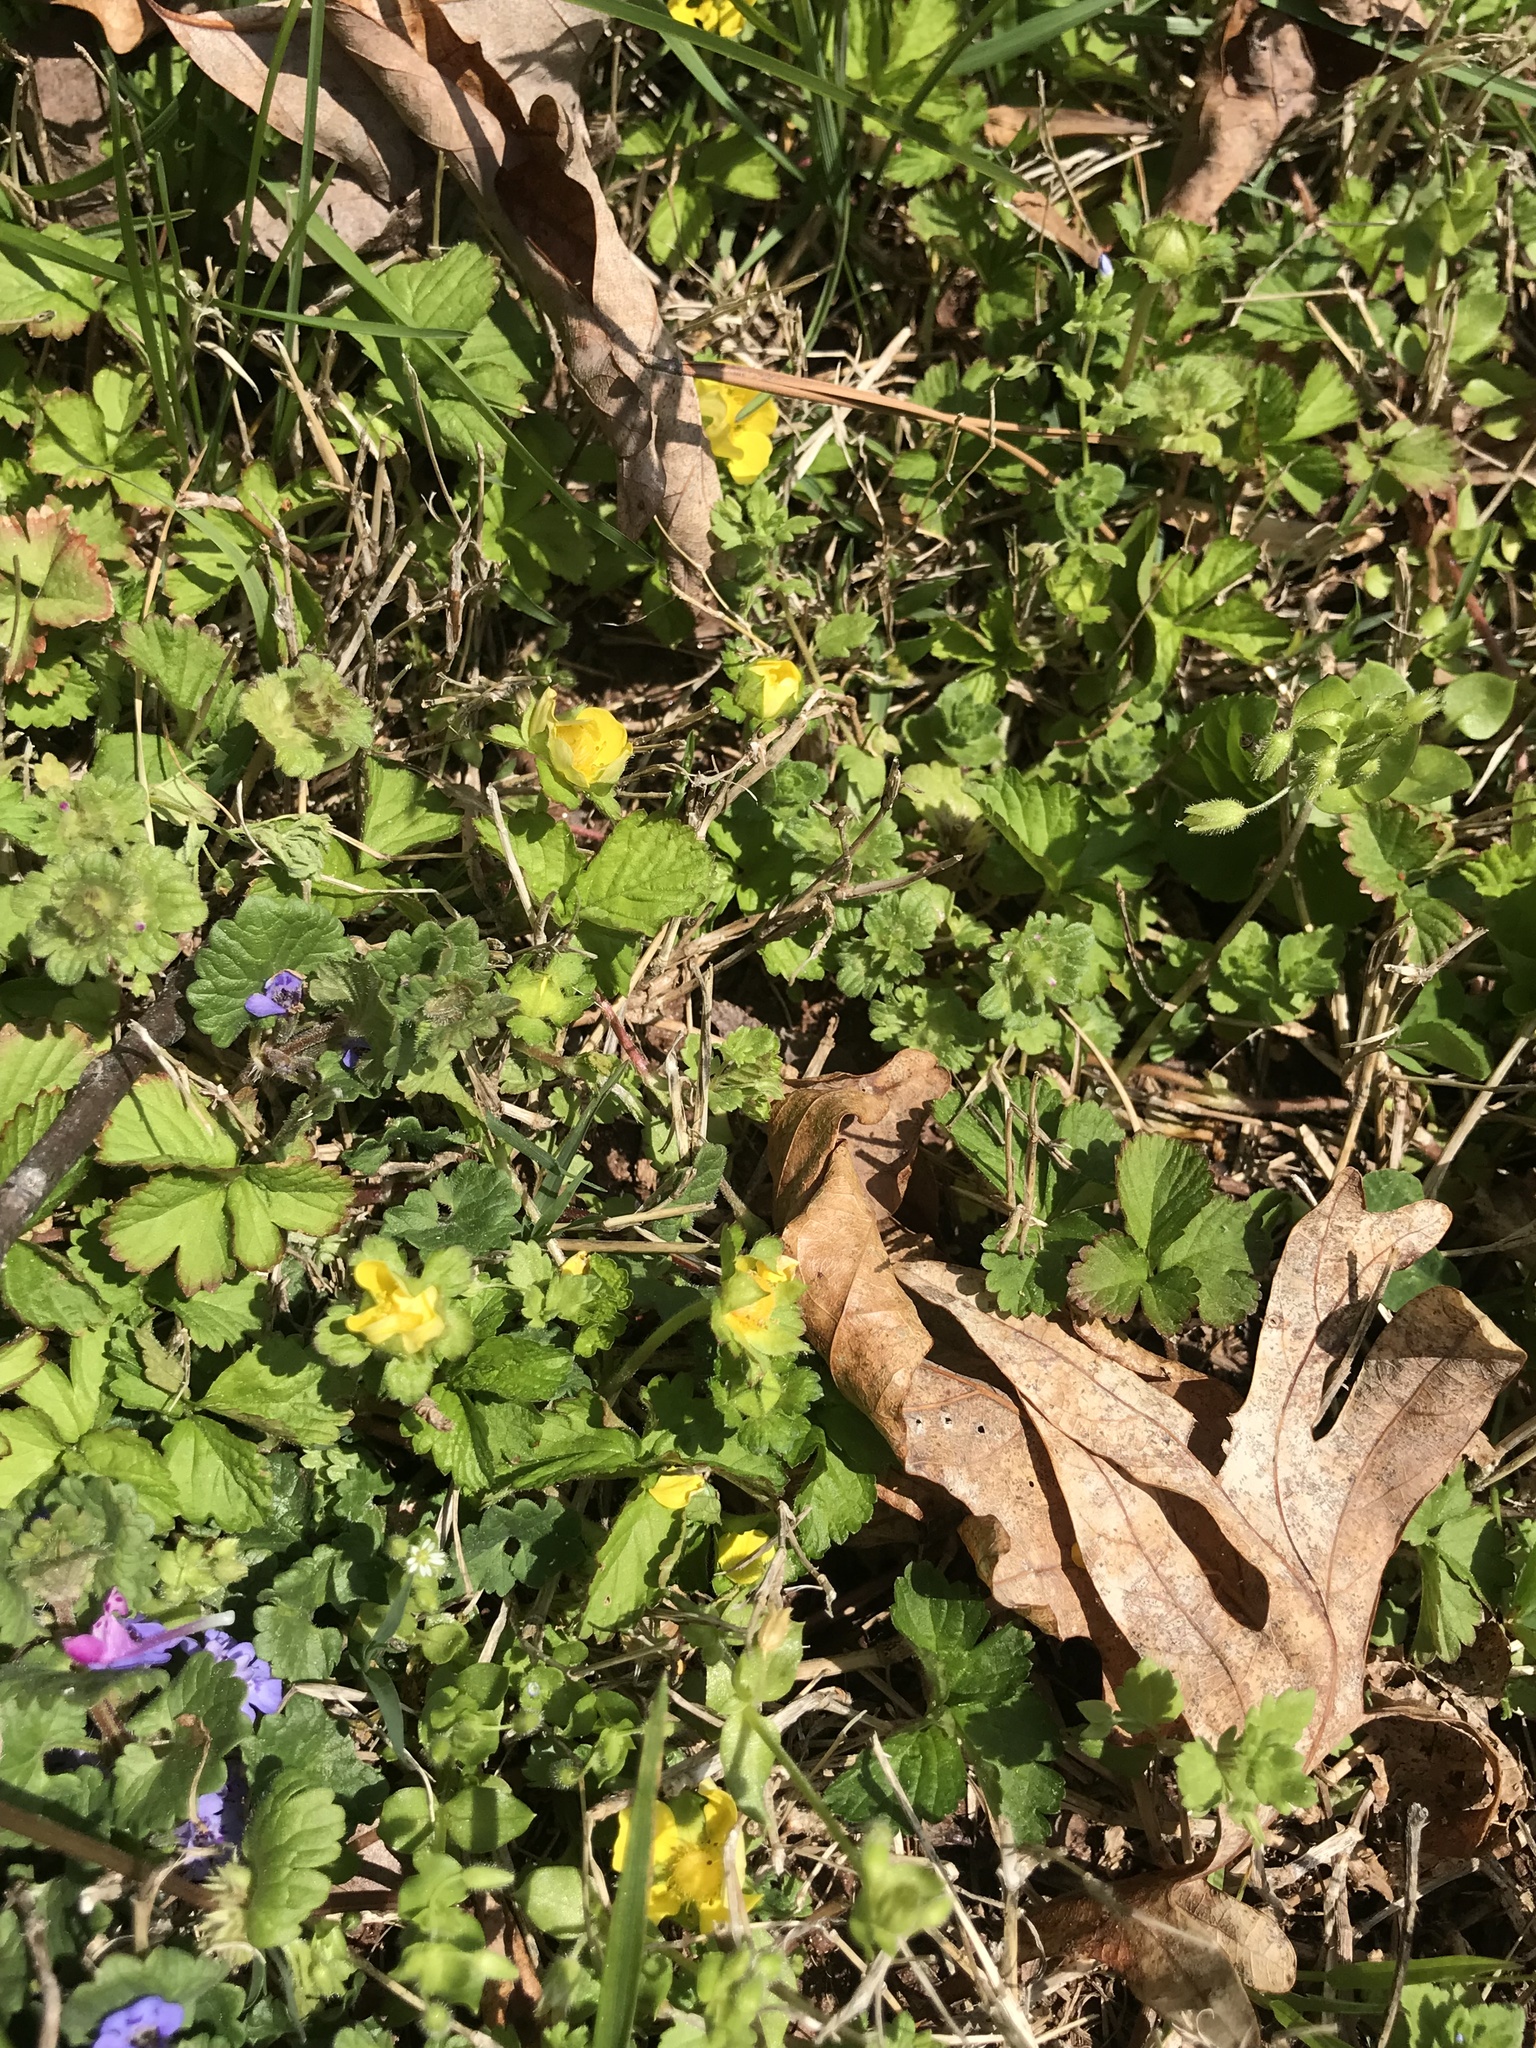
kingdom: Plantae
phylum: Tracheophyta
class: Magnoliopsida
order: Rosales
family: Rosaceae
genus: Potentilla
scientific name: Potentilla indica
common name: Yellow-flowered strawberry
